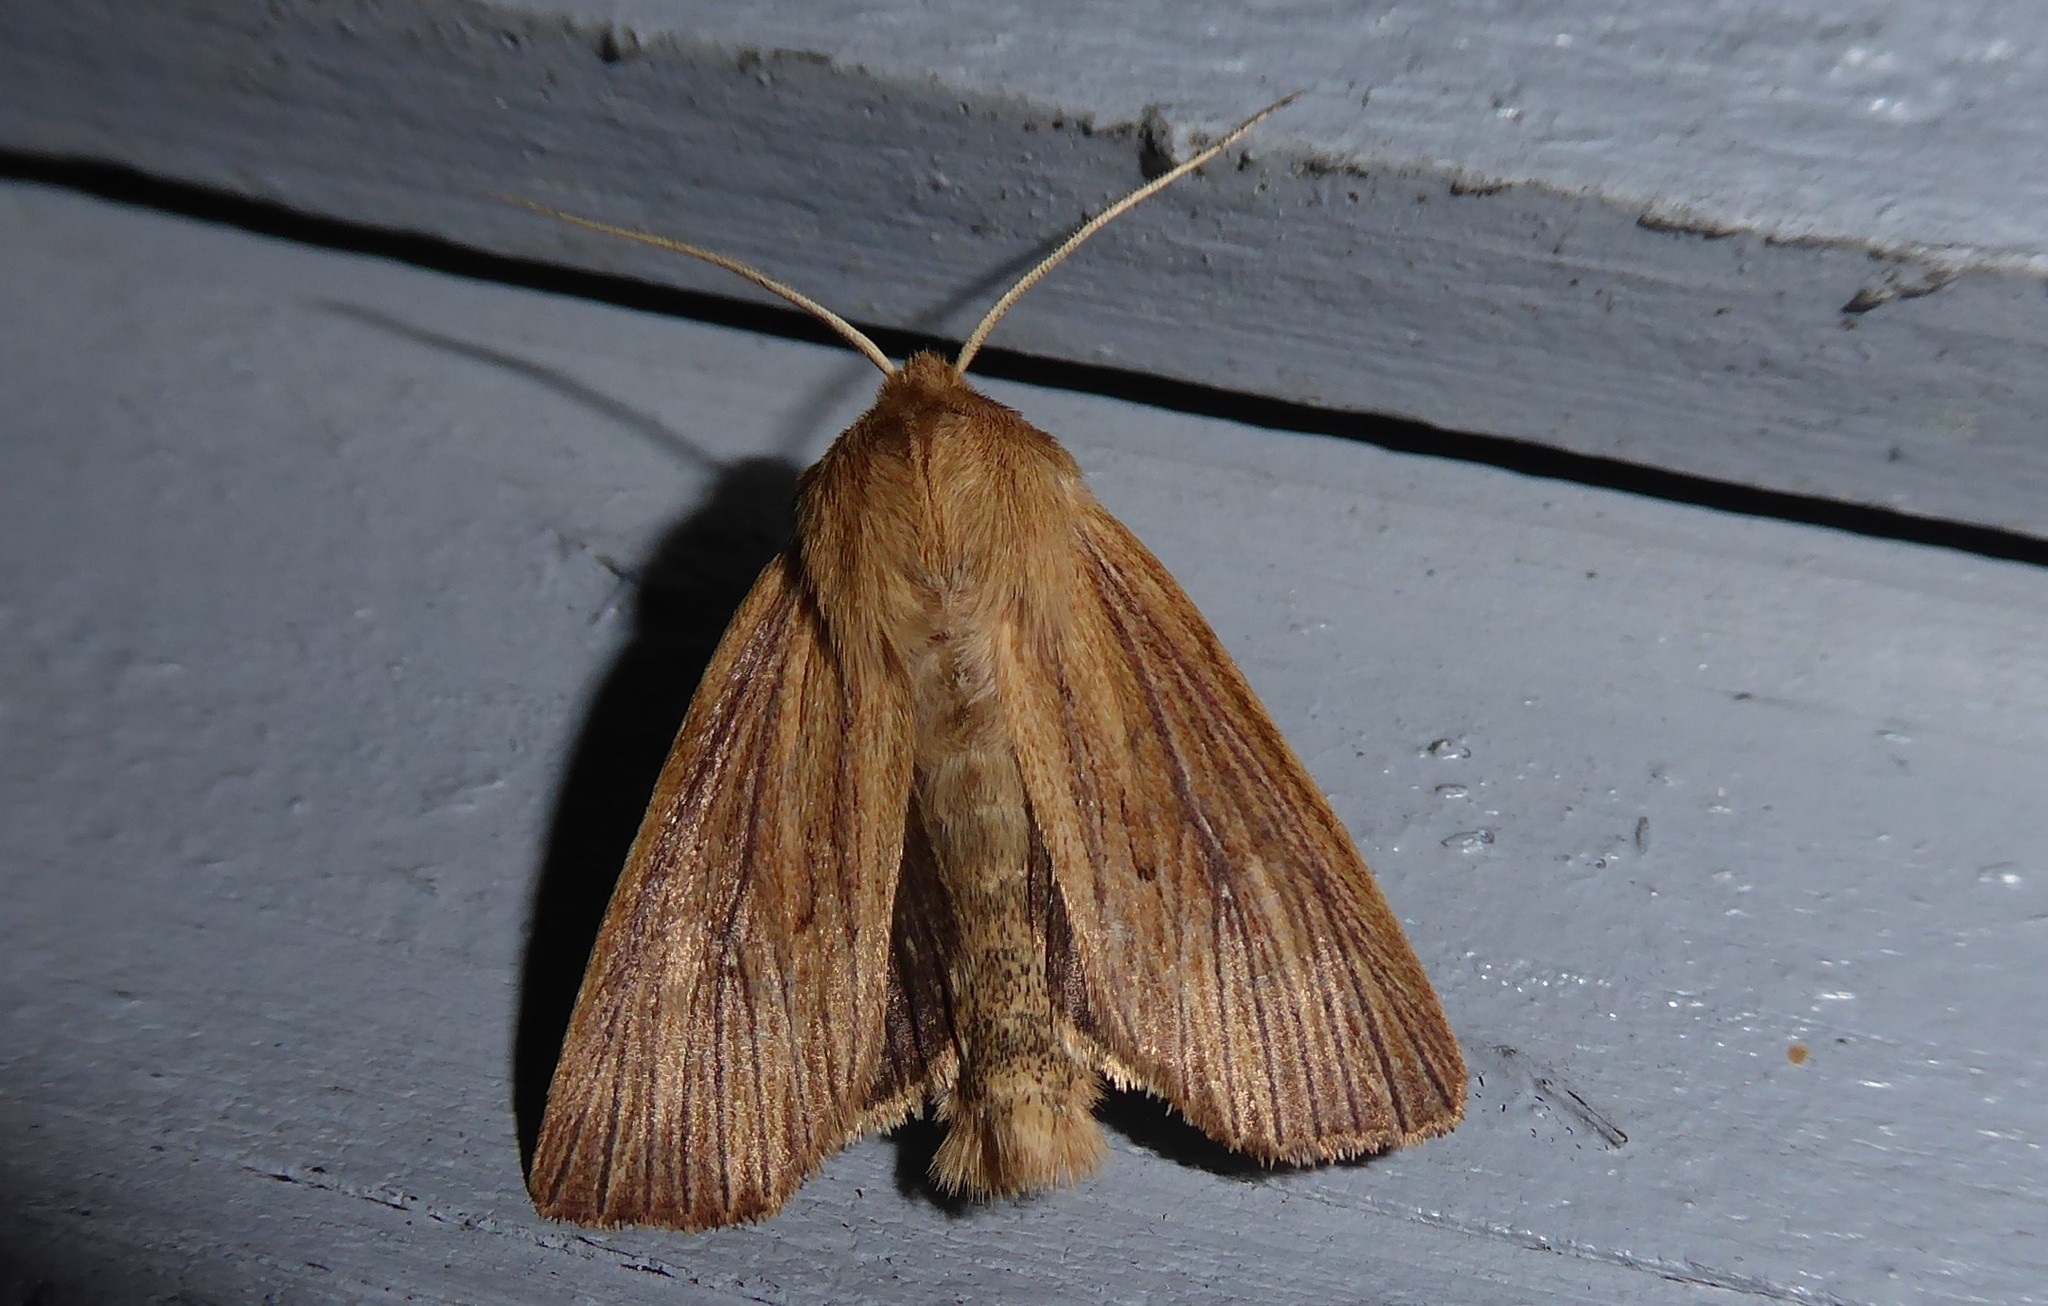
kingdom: Animalia
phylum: Arthropoda
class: Insecta
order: Lepidoptera
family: Noctuidae
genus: Ichneutica
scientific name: Ichneutica arotis
